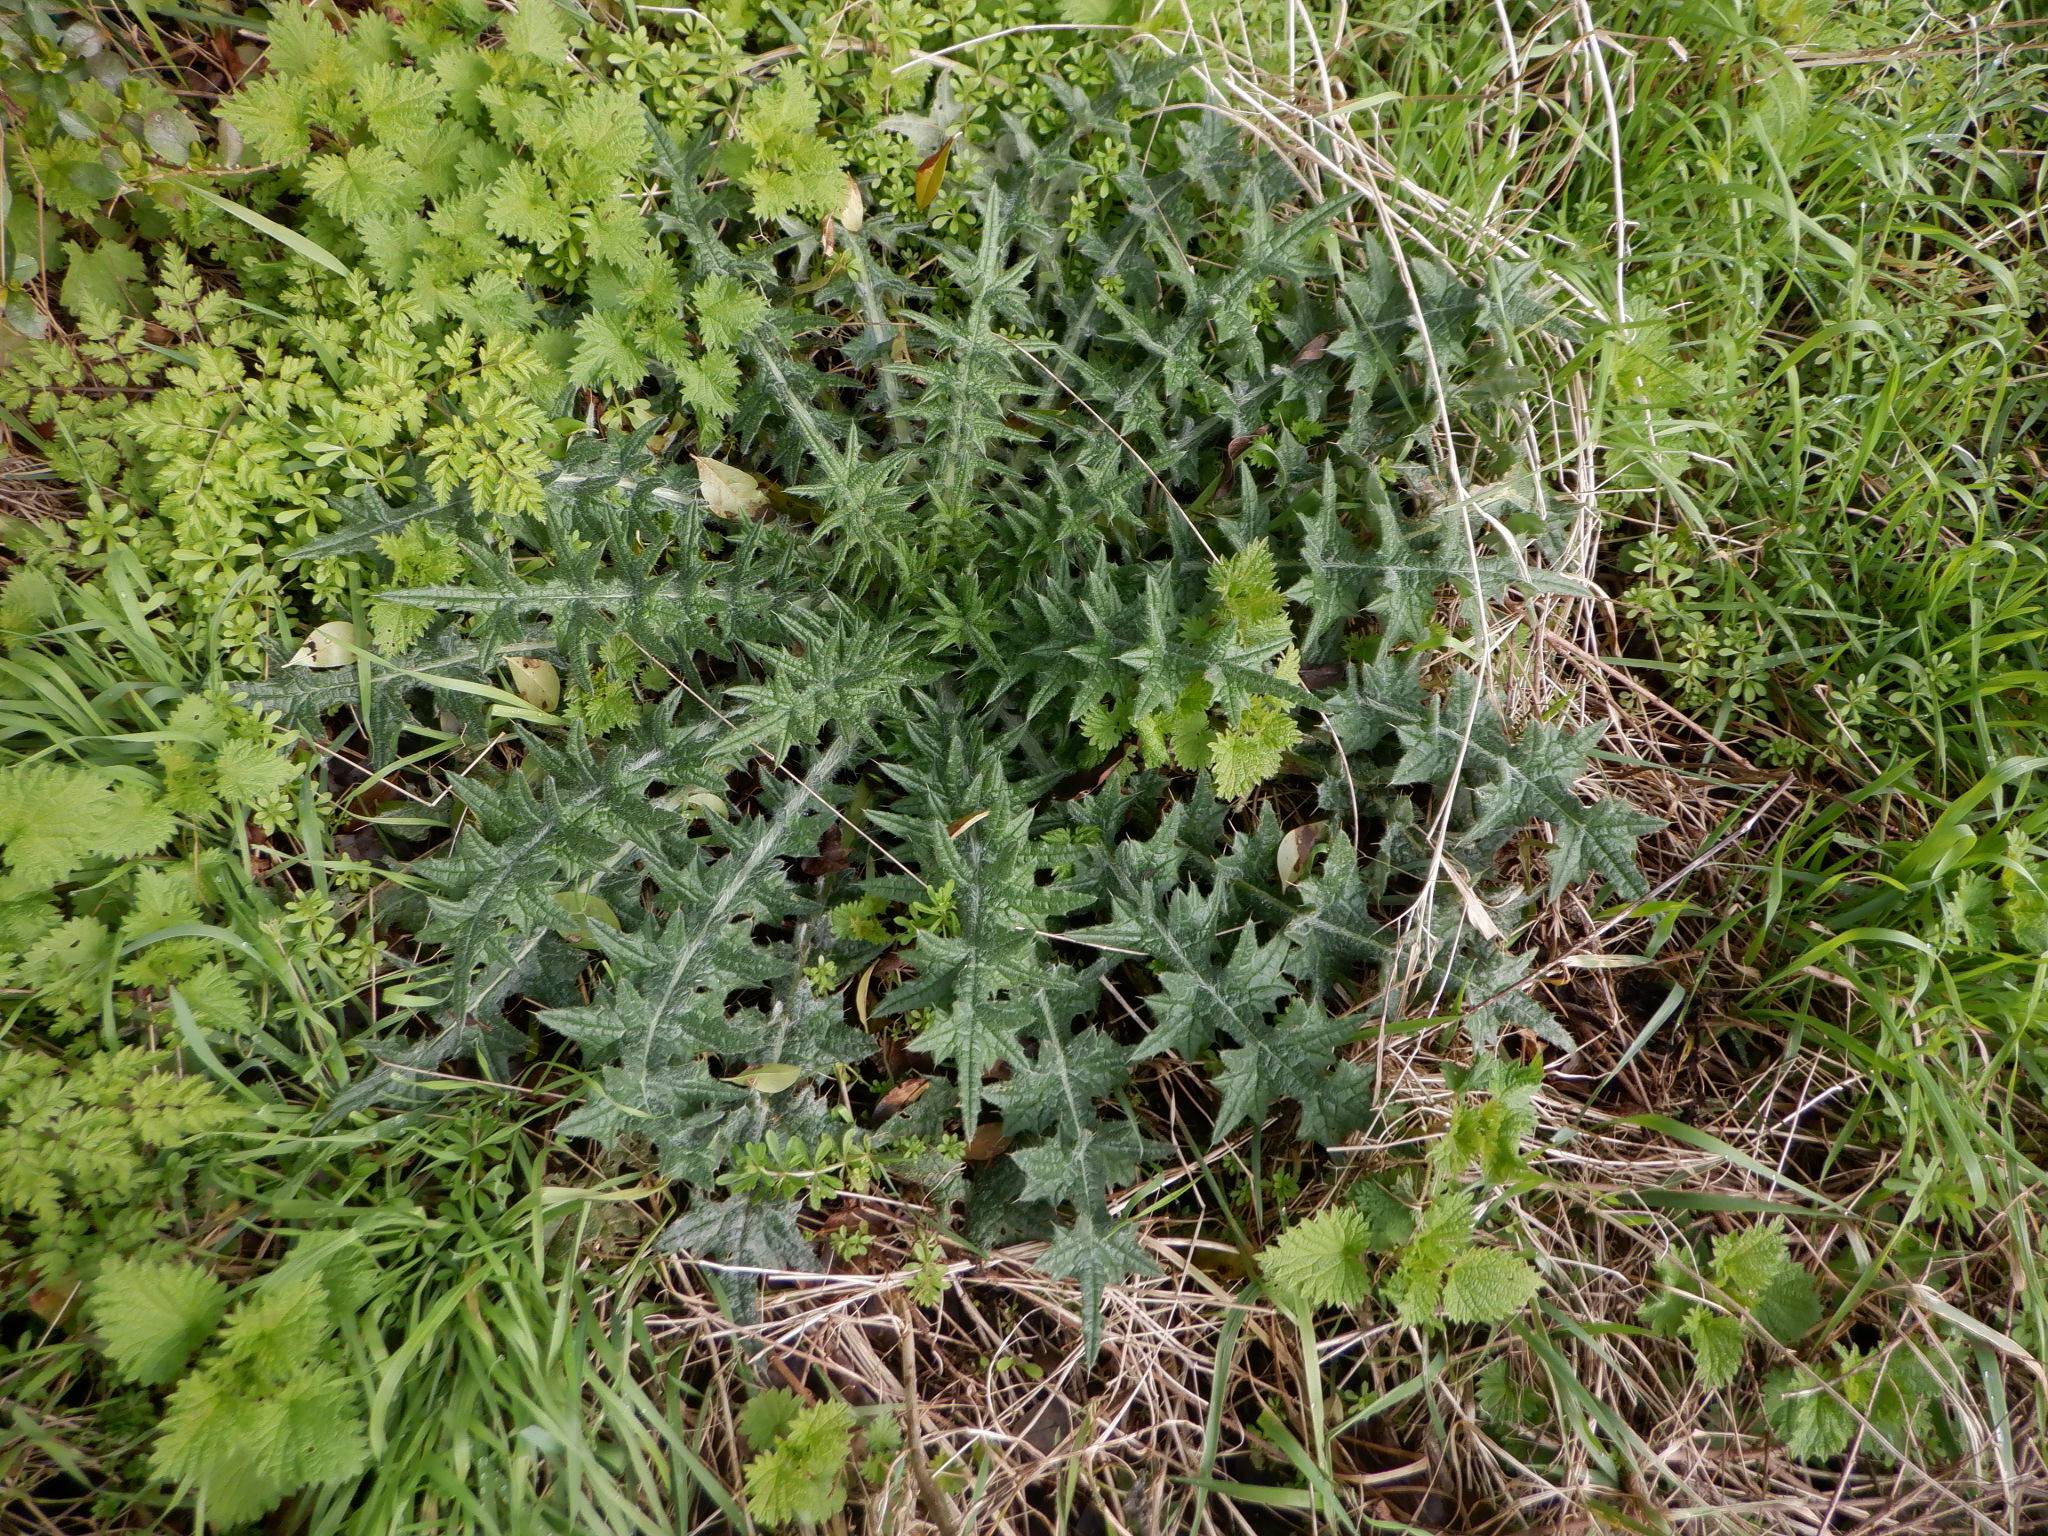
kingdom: Plantae
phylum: Tracheophyta
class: Magnoliopsida
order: Asterales
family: Asteraceae
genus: Cirsium
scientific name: Cirsium vulgare
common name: Bull thistle
